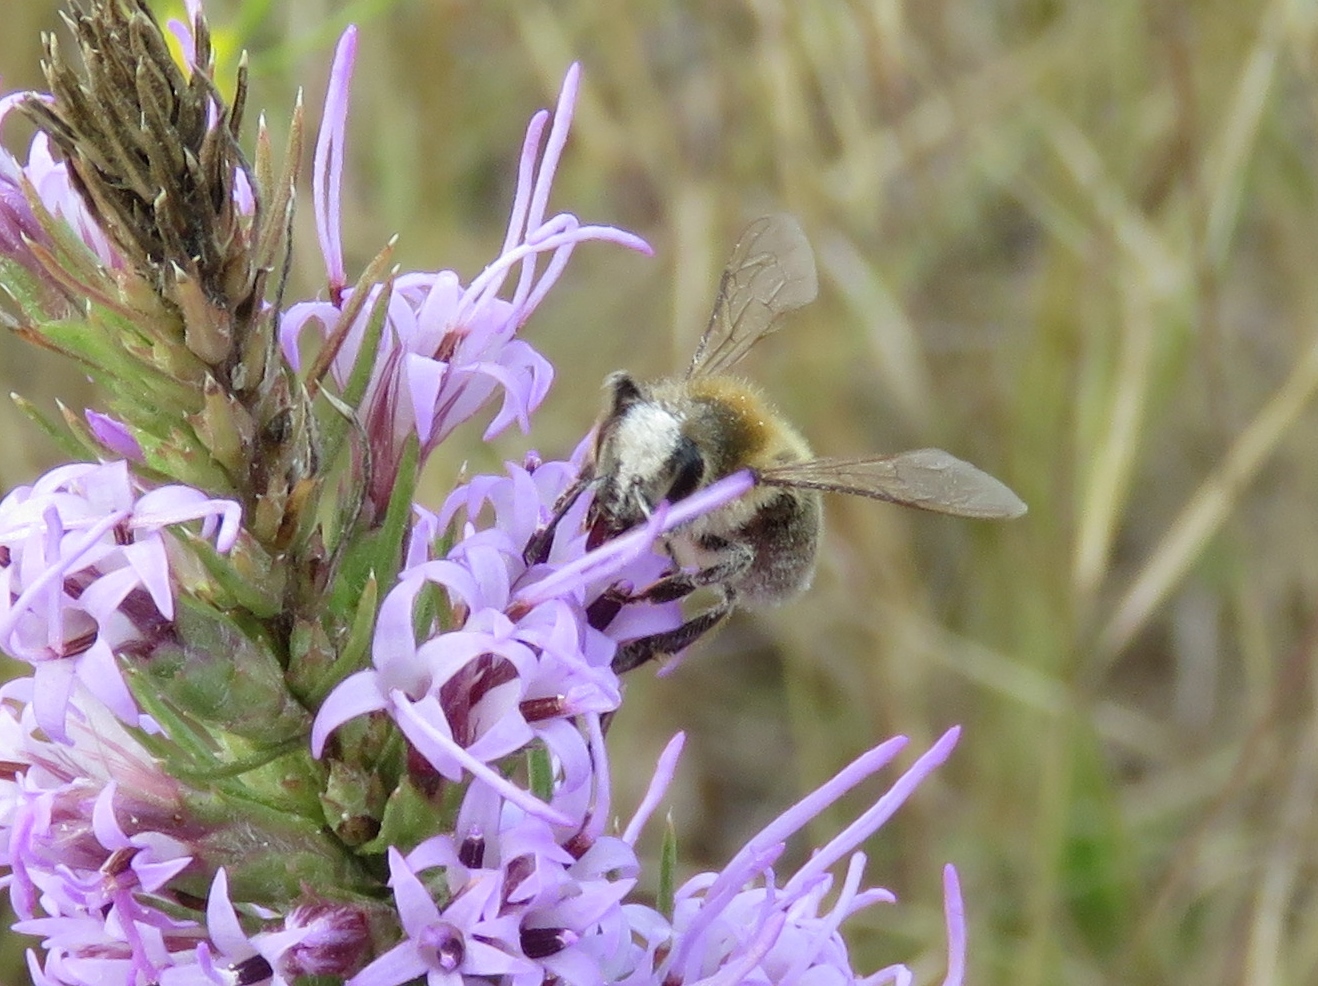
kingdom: Animalia
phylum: Arthropoda
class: Insecta
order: Hymenoptera
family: Apidae
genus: Apis
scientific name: Apis mellifera
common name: Honey bee
